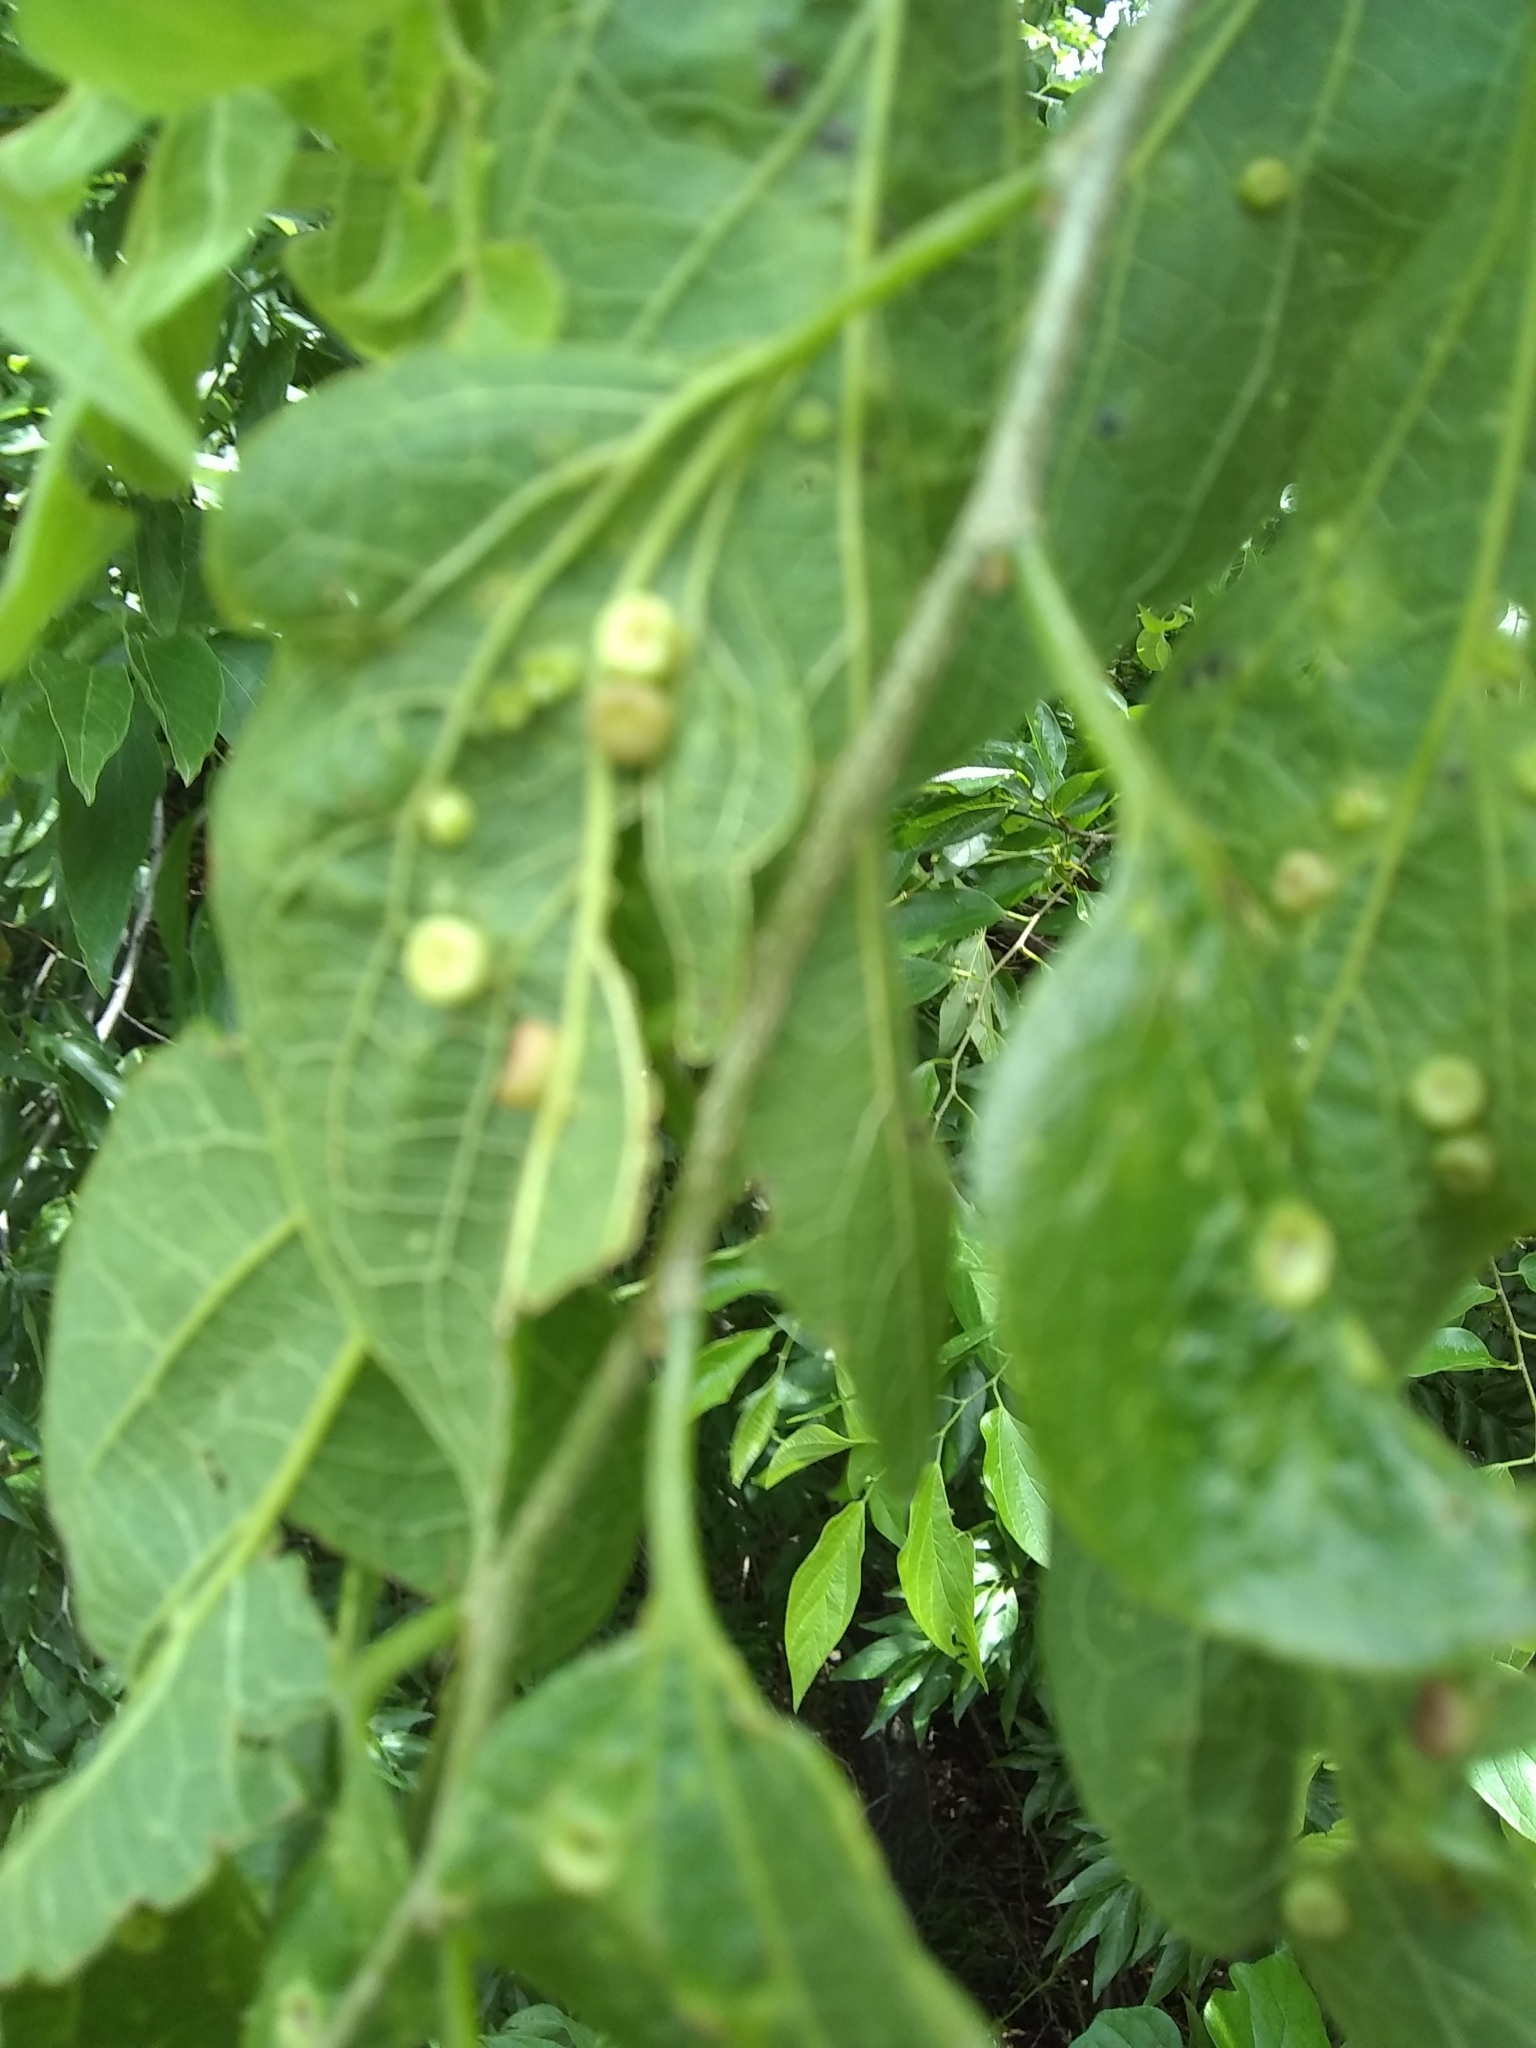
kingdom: Animalia
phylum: Arthropoda
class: Insecta
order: Hemiptera
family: Aphalaridae
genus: Pachypsylla
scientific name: Pachypsylla celtidismamma
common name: Hackberry nipplegall psyllid
